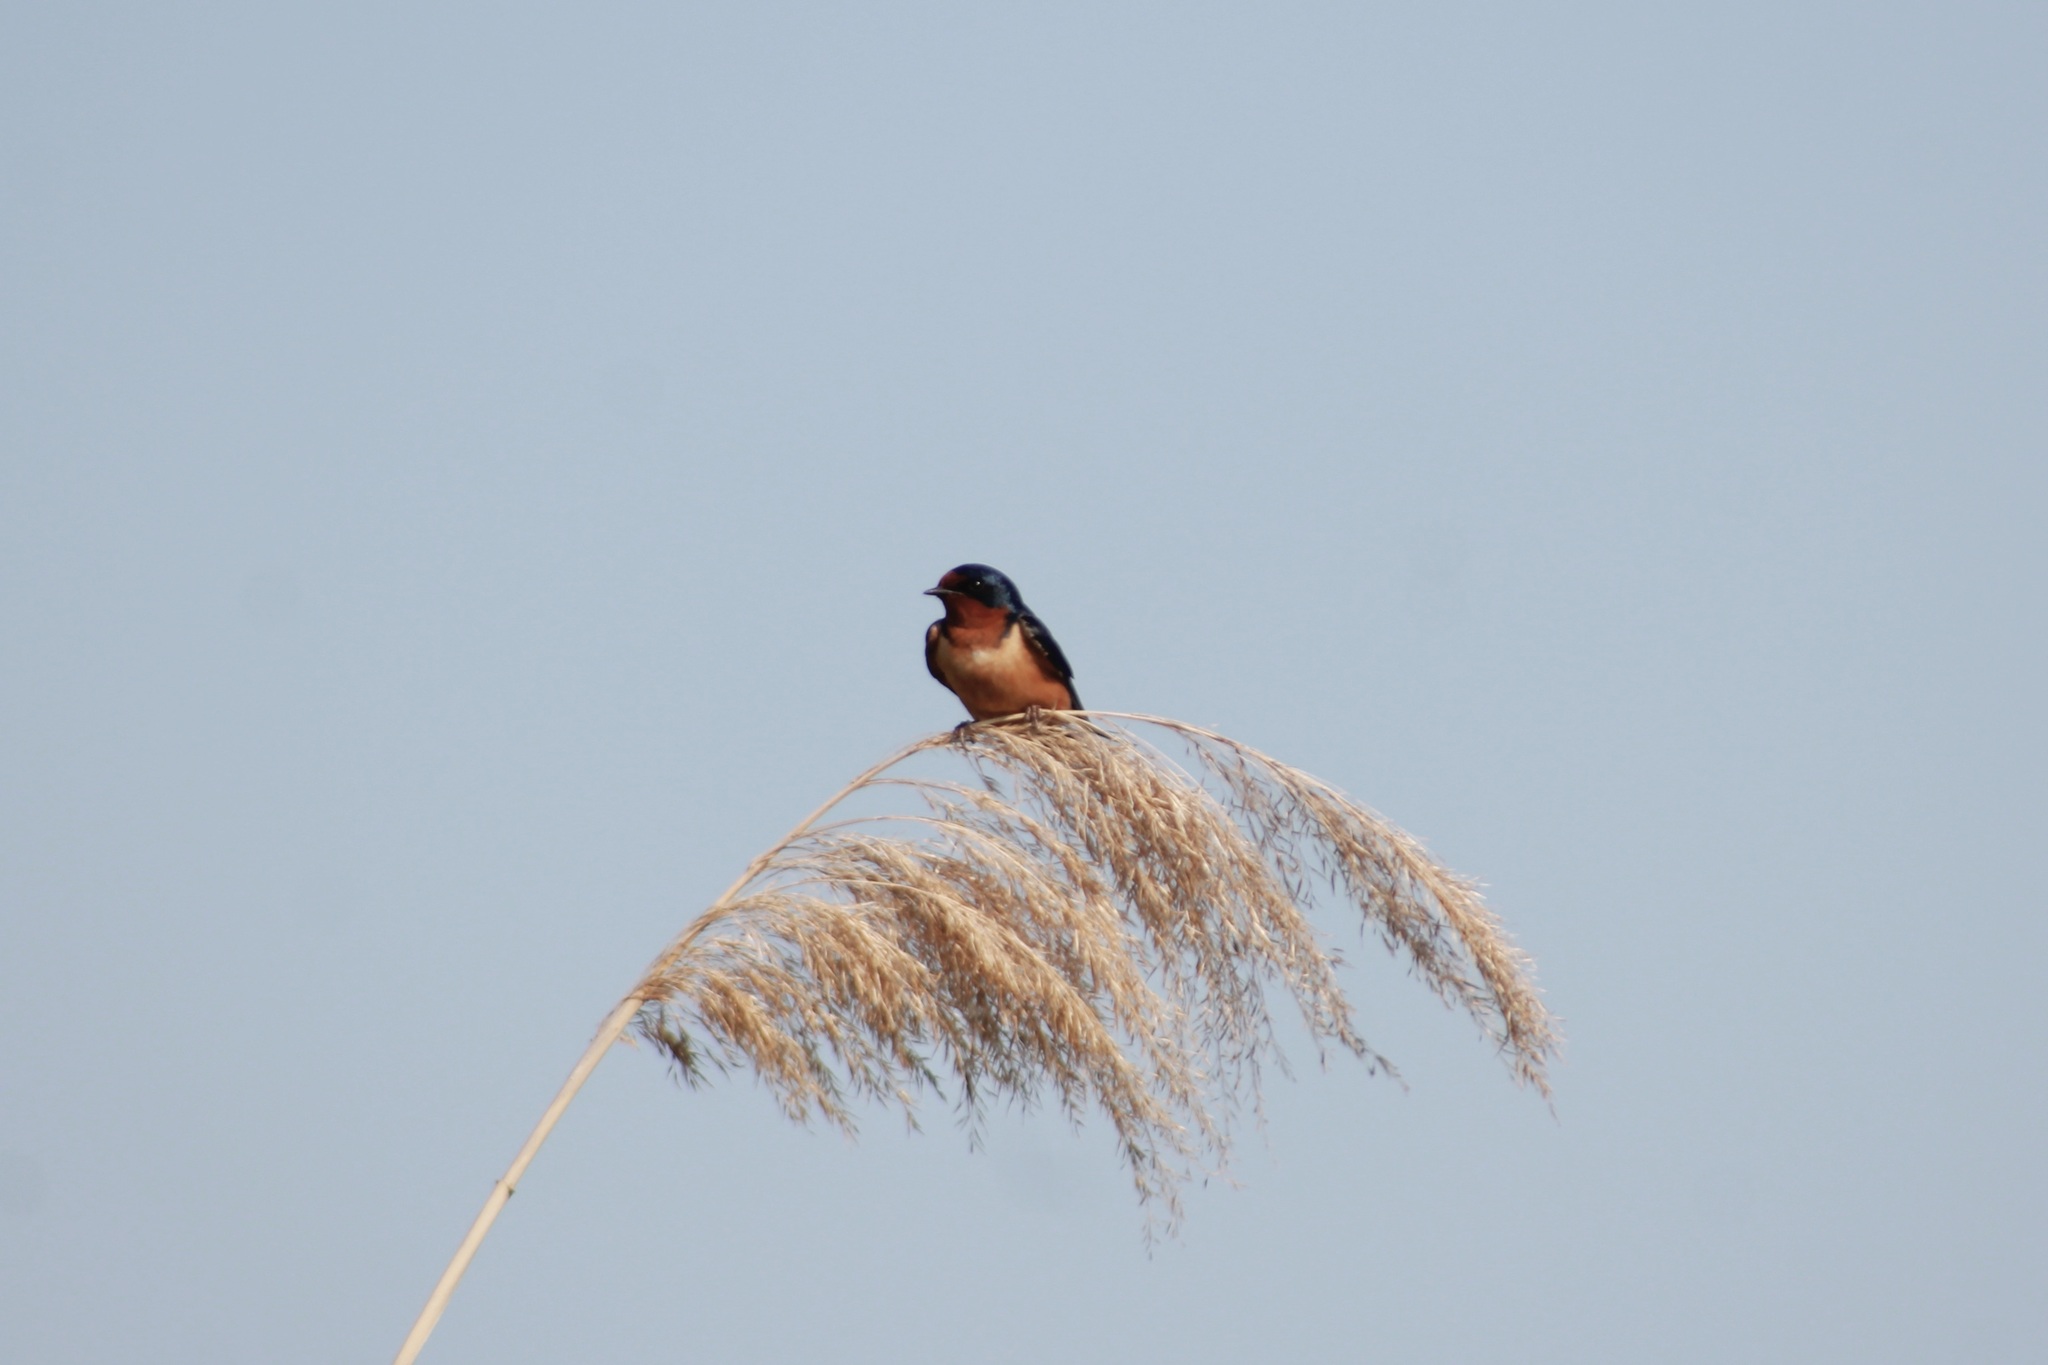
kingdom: Animalia
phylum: Chordata
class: Aves
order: Passeriformes
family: Hirundinidae
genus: Hirundo
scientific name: Hirundo rustica
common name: Barn swallow
